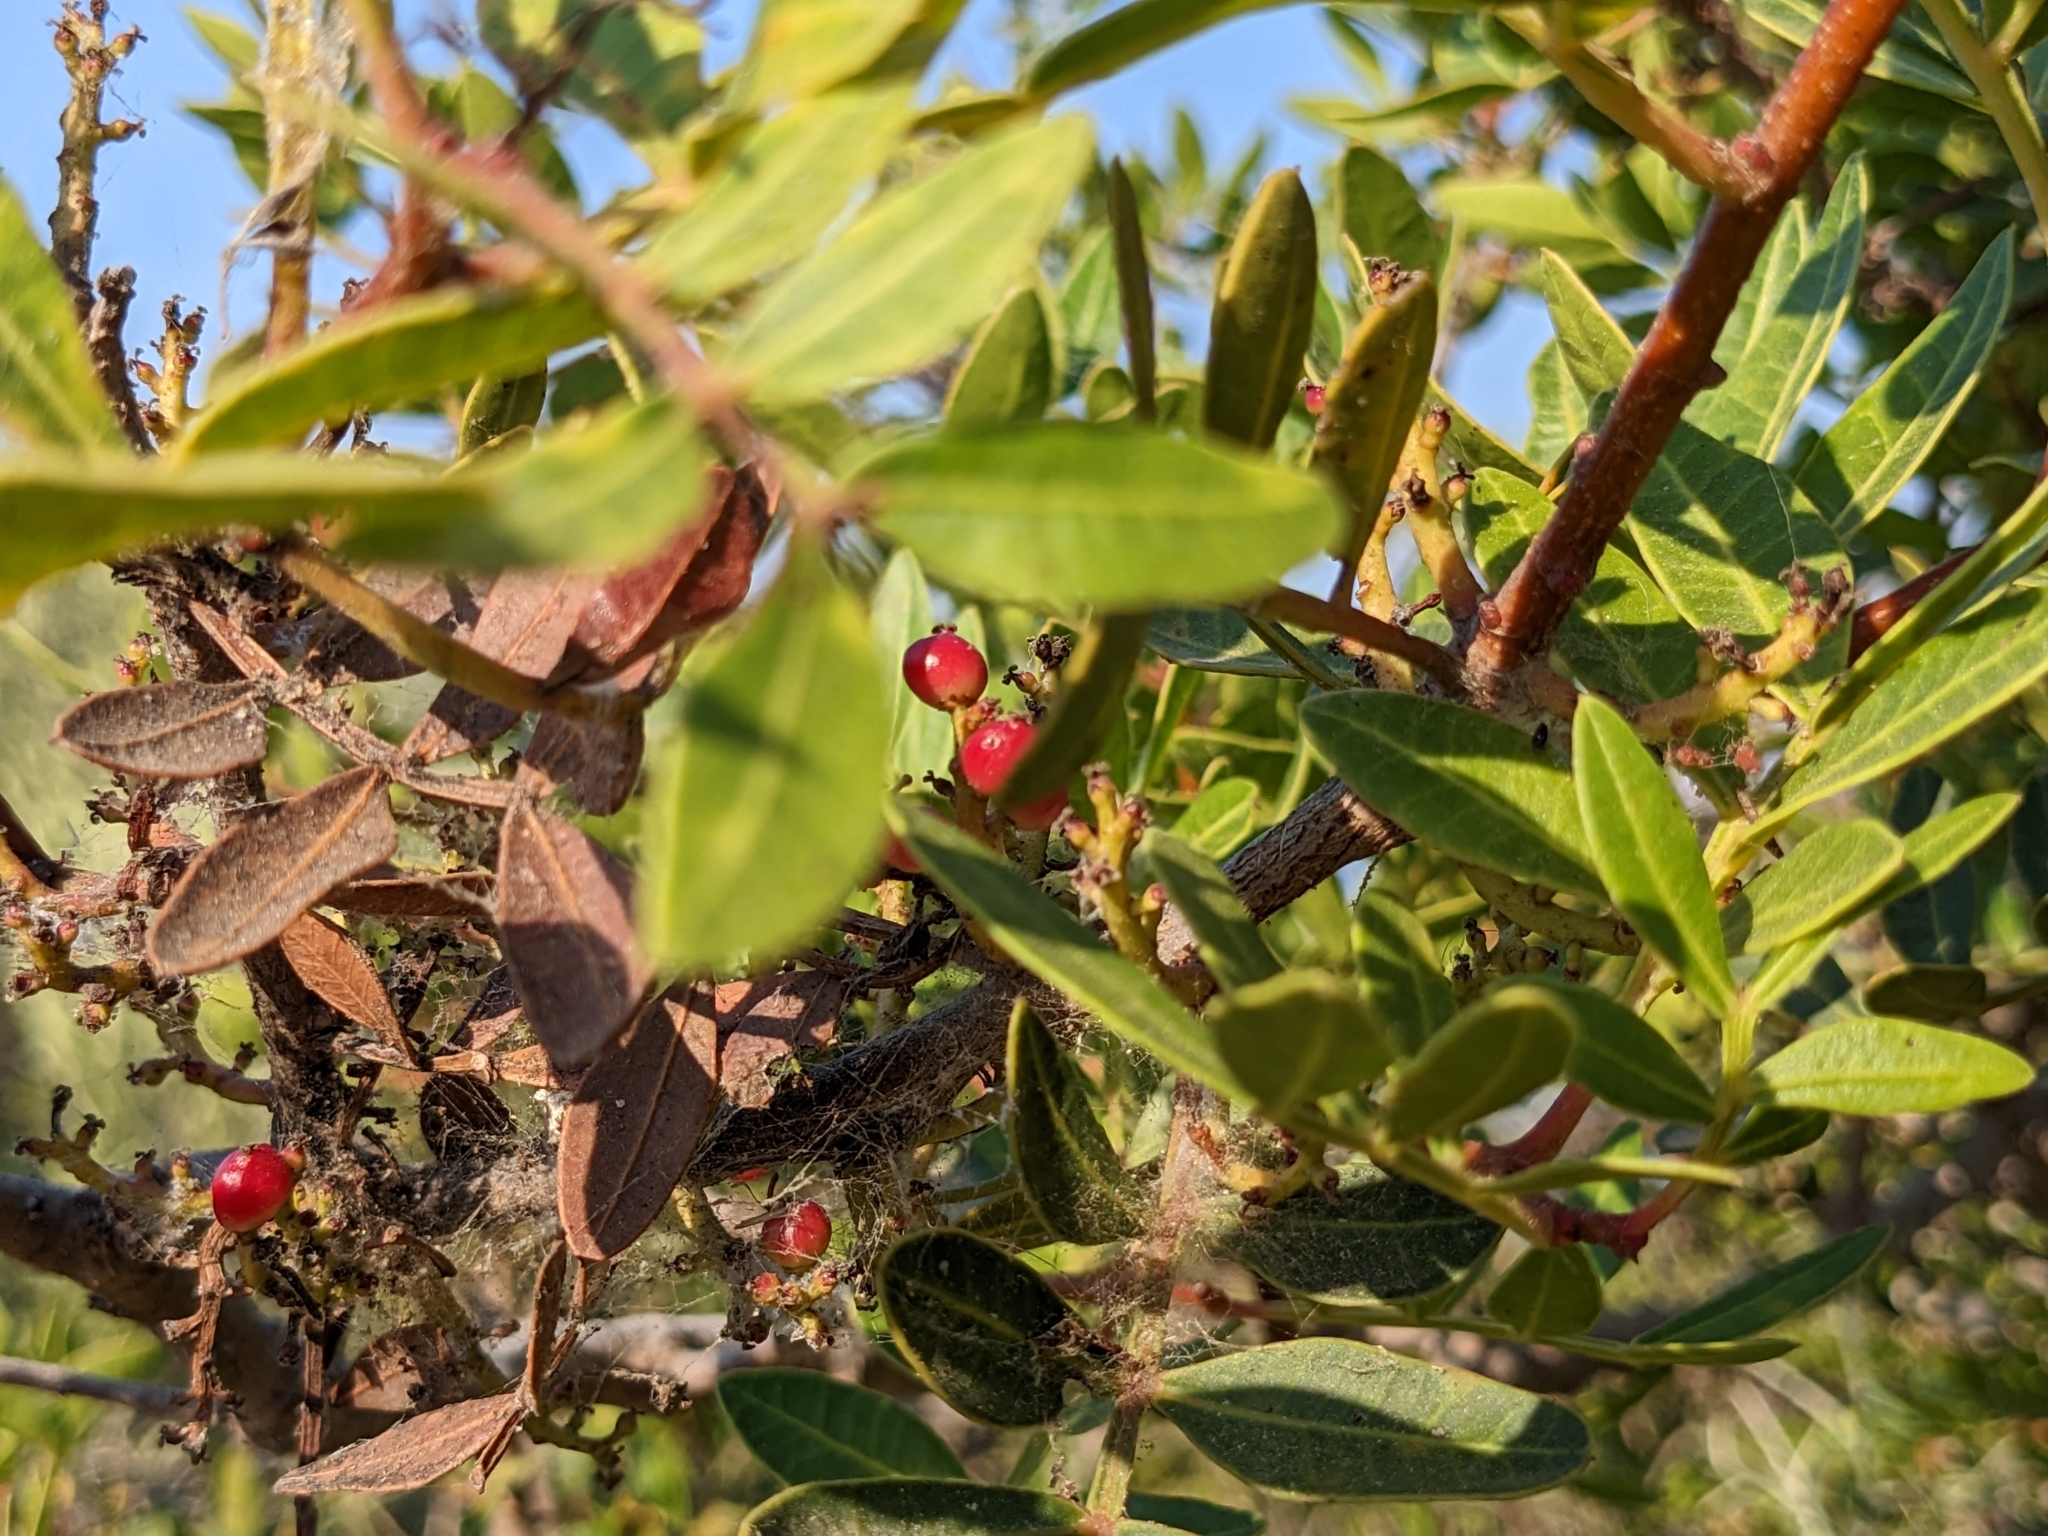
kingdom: Plantae
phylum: Tracheophyta
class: Magnoliopsida
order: Sapindales
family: Anacardiaceae
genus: Pistacia
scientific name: Pistacia lentiscus
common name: Lentisk
